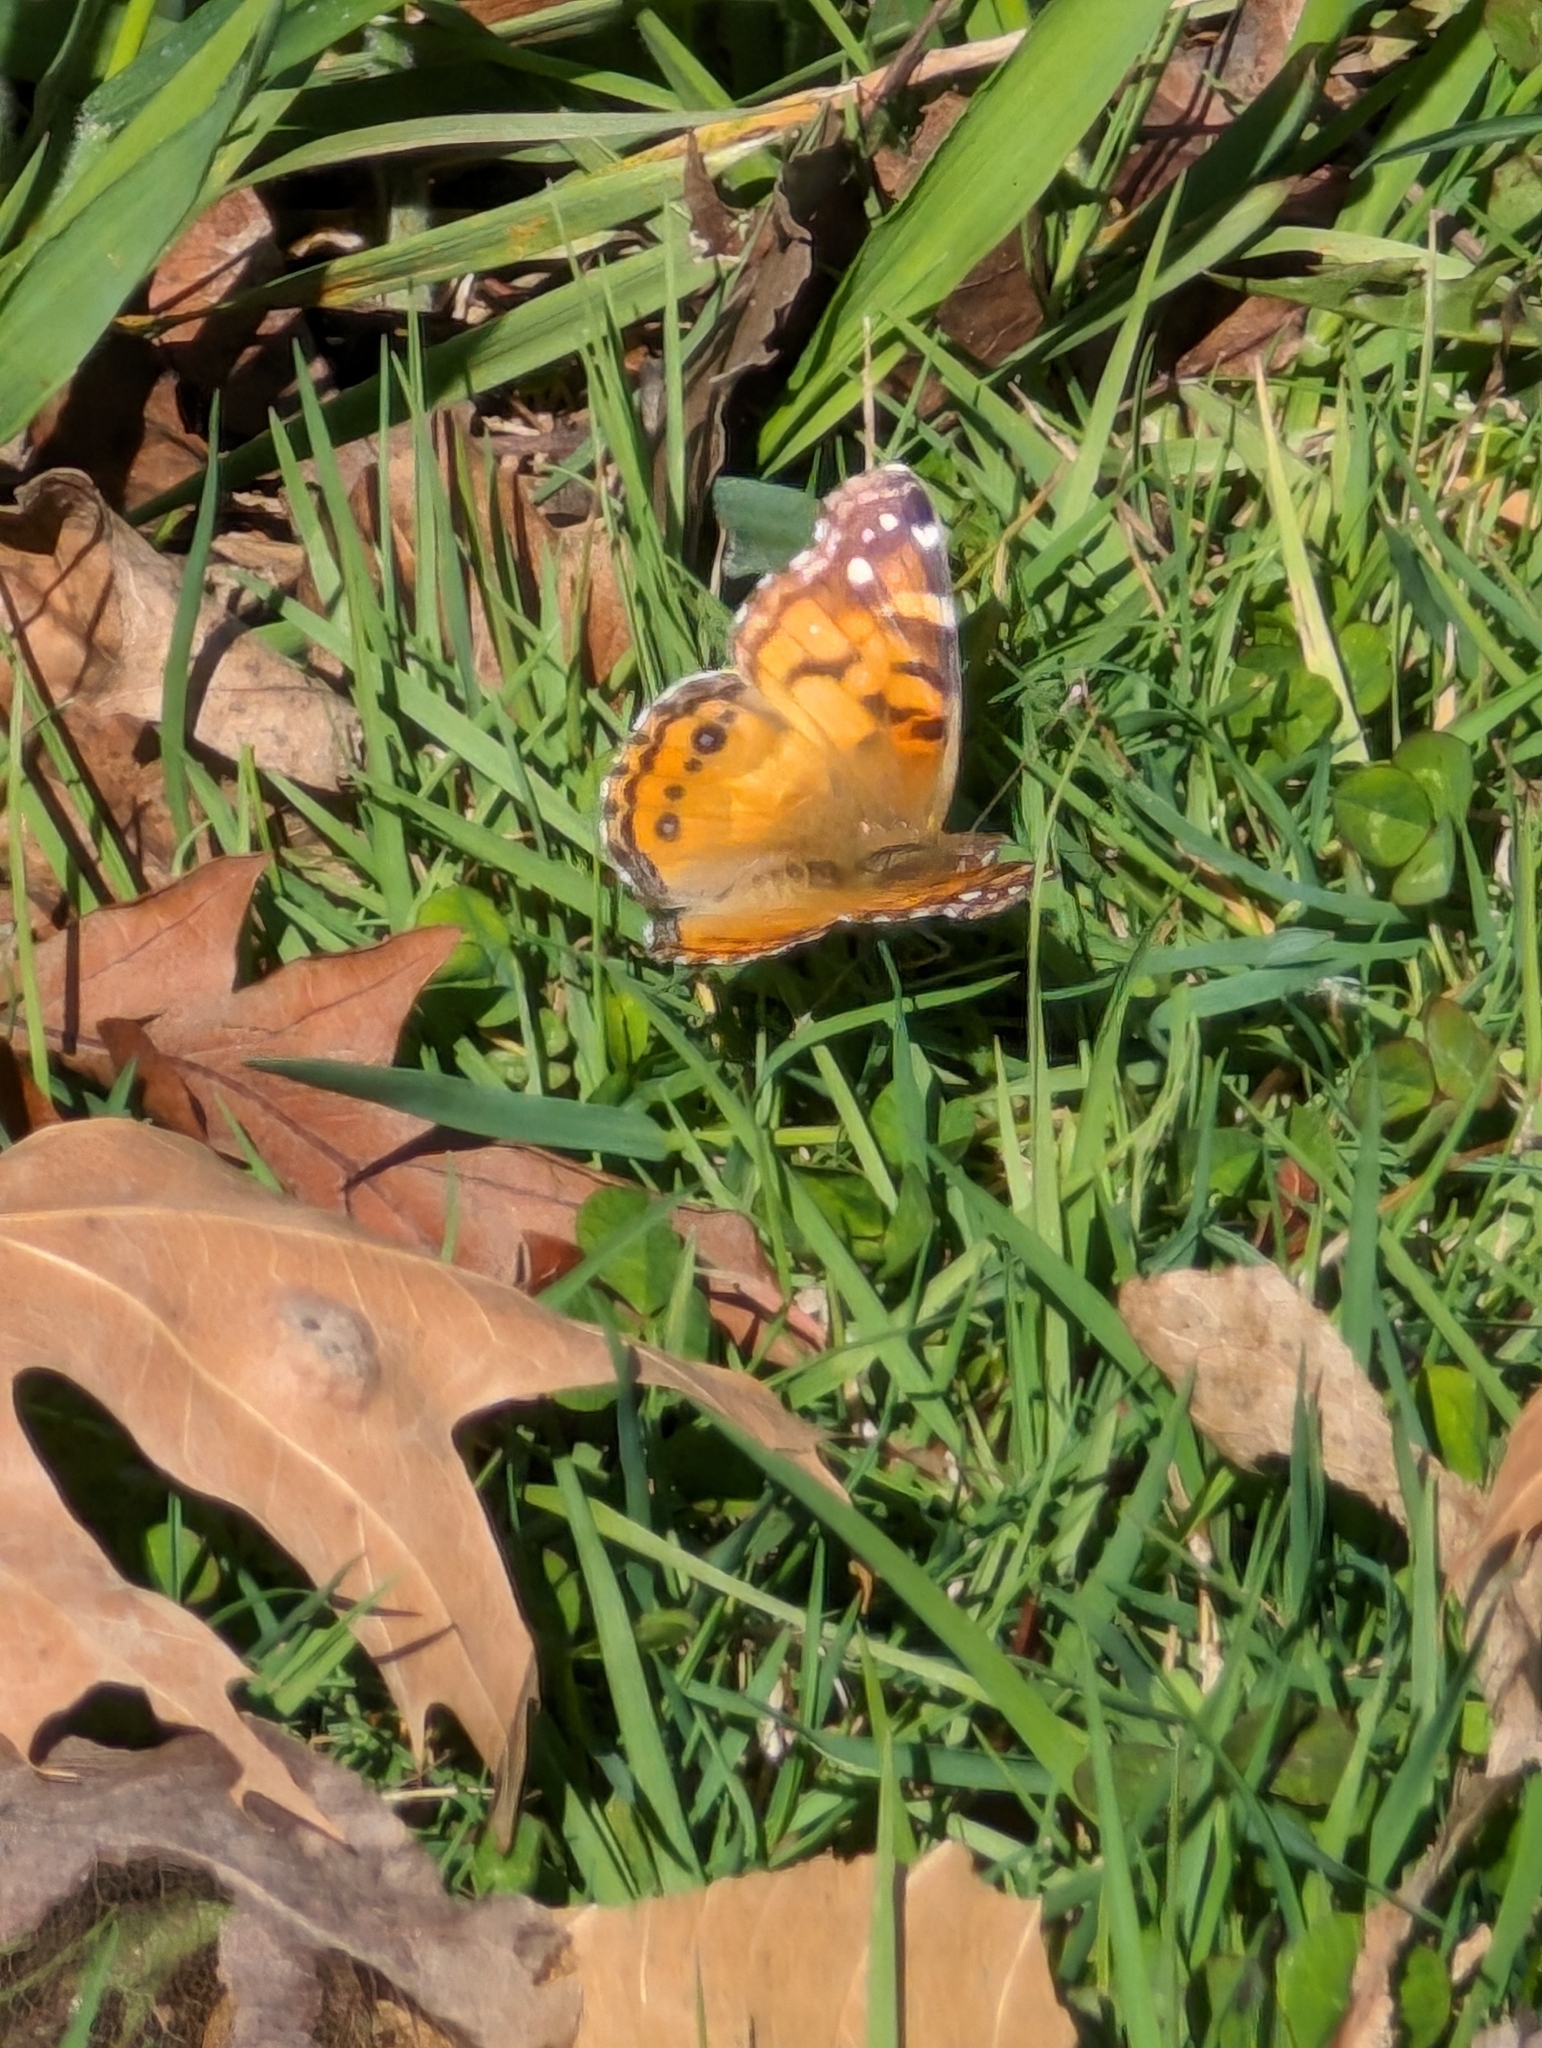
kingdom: Animalia
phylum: Arthropoda
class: Insecta
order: Lepidoptera
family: Nymphalidae
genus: Vanessa
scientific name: Vanessa virginiensis
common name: American lady
